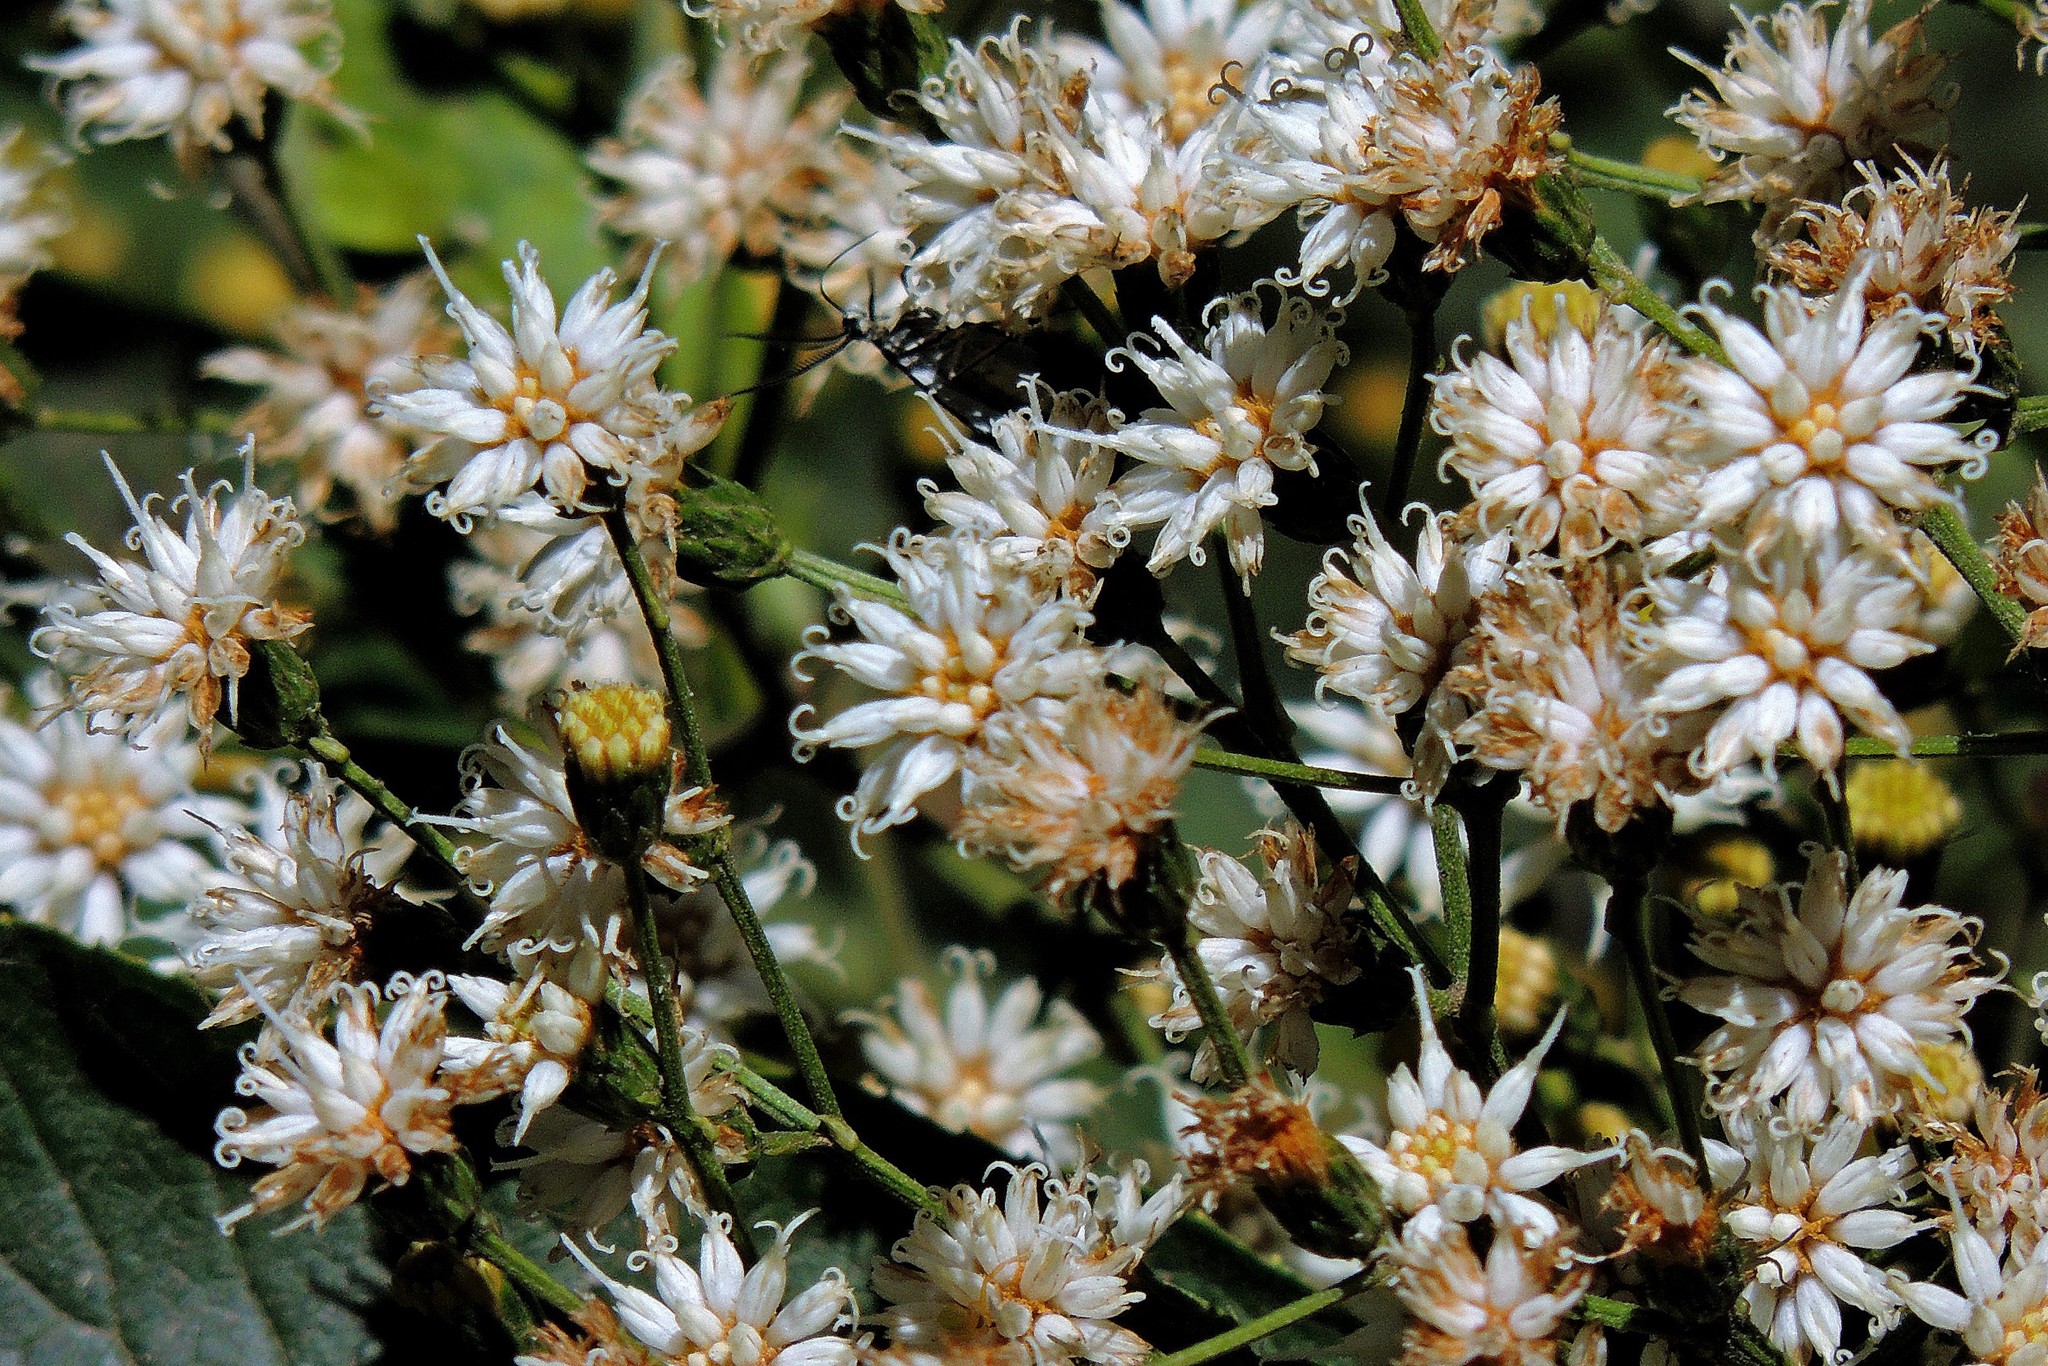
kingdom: Plantae
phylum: Tracheophyta
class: Magnoliopsida
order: Asterales
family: Asteraceae
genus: Vernonanthura
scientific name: Vernonanthura pinguis
